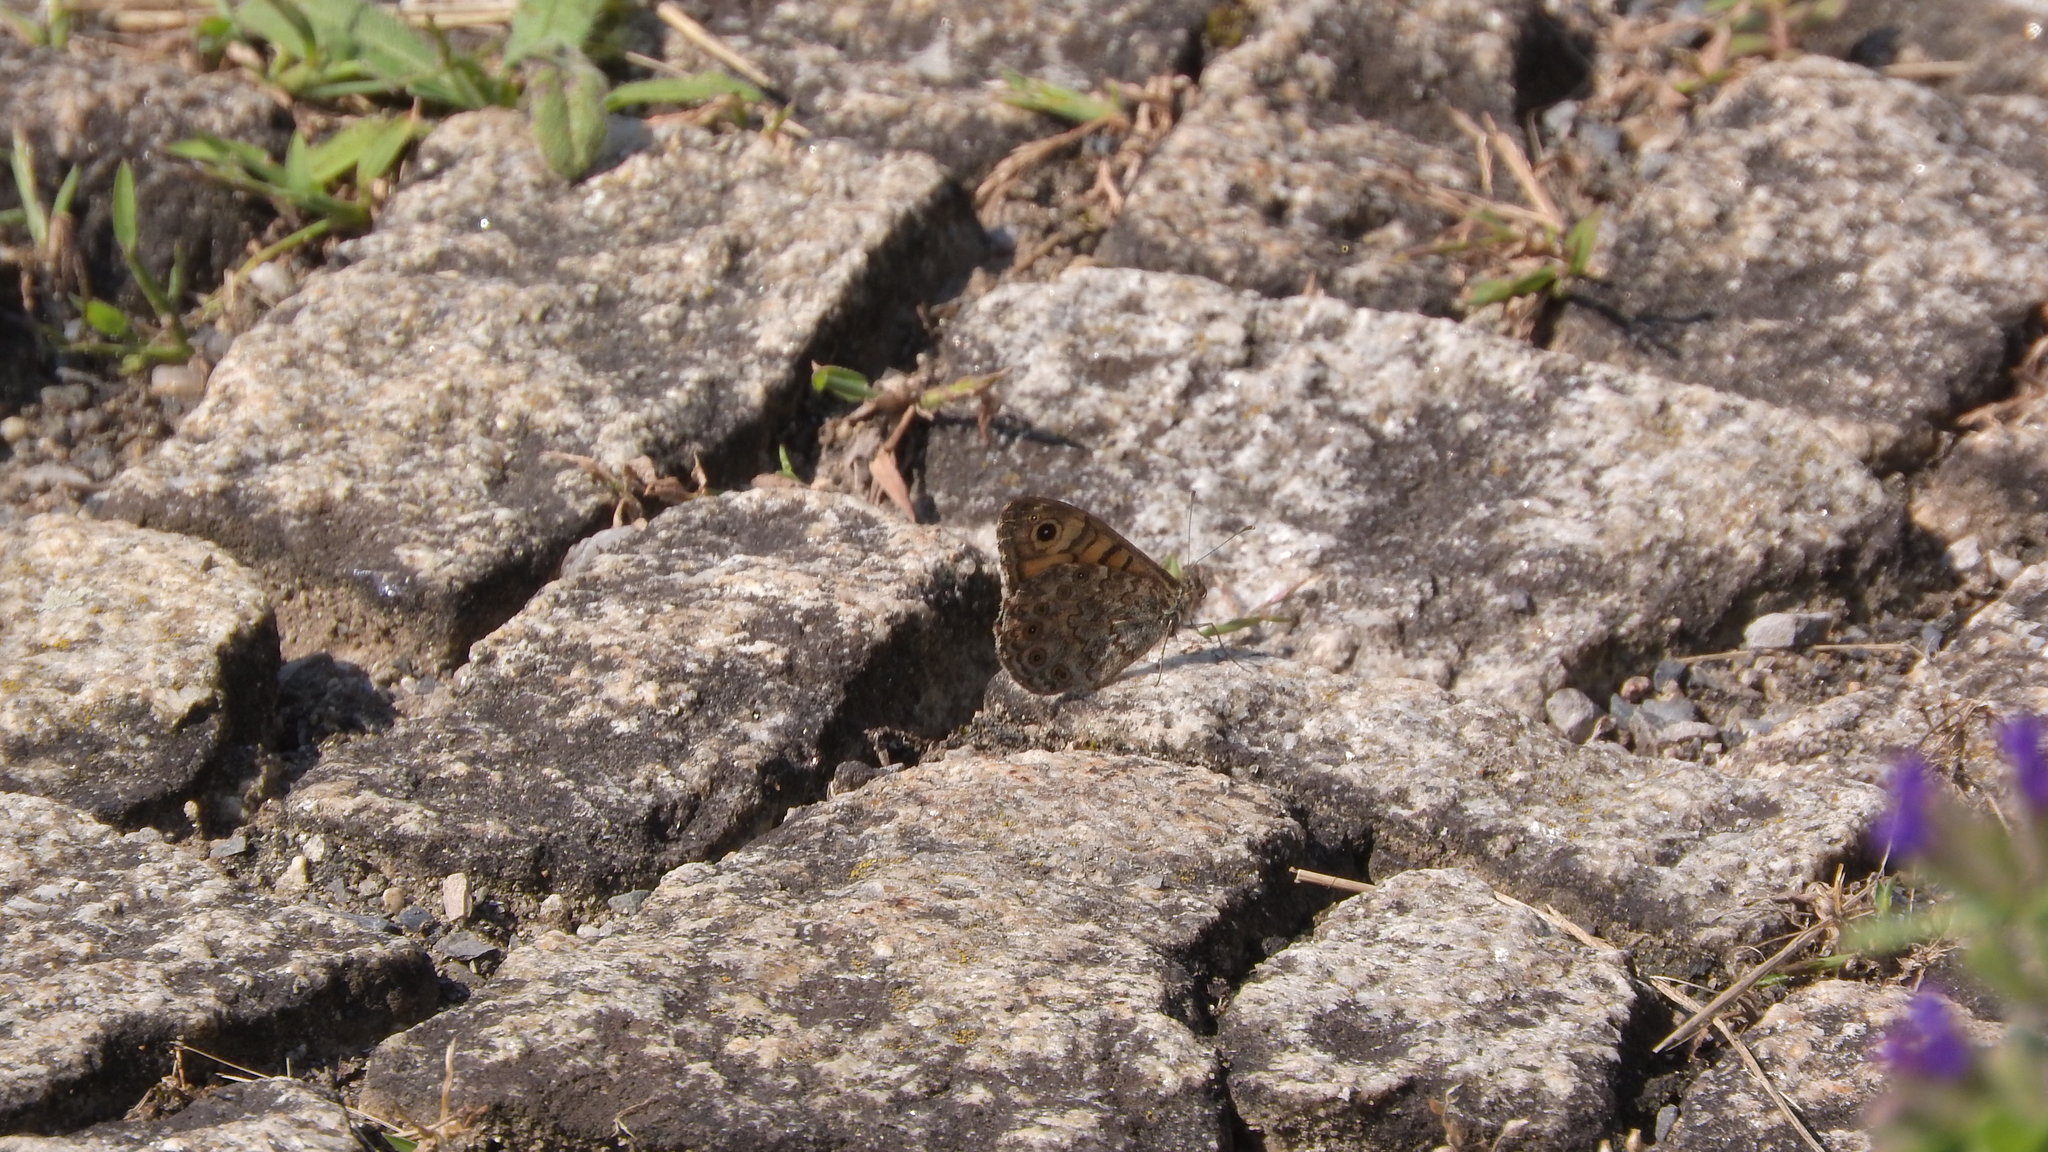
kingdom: Animalia
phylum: Arthropoda
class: Insecta
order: Lepidoptera
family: Nymphalidae
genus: Pararge
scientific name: Pararge Lasiommata megera
